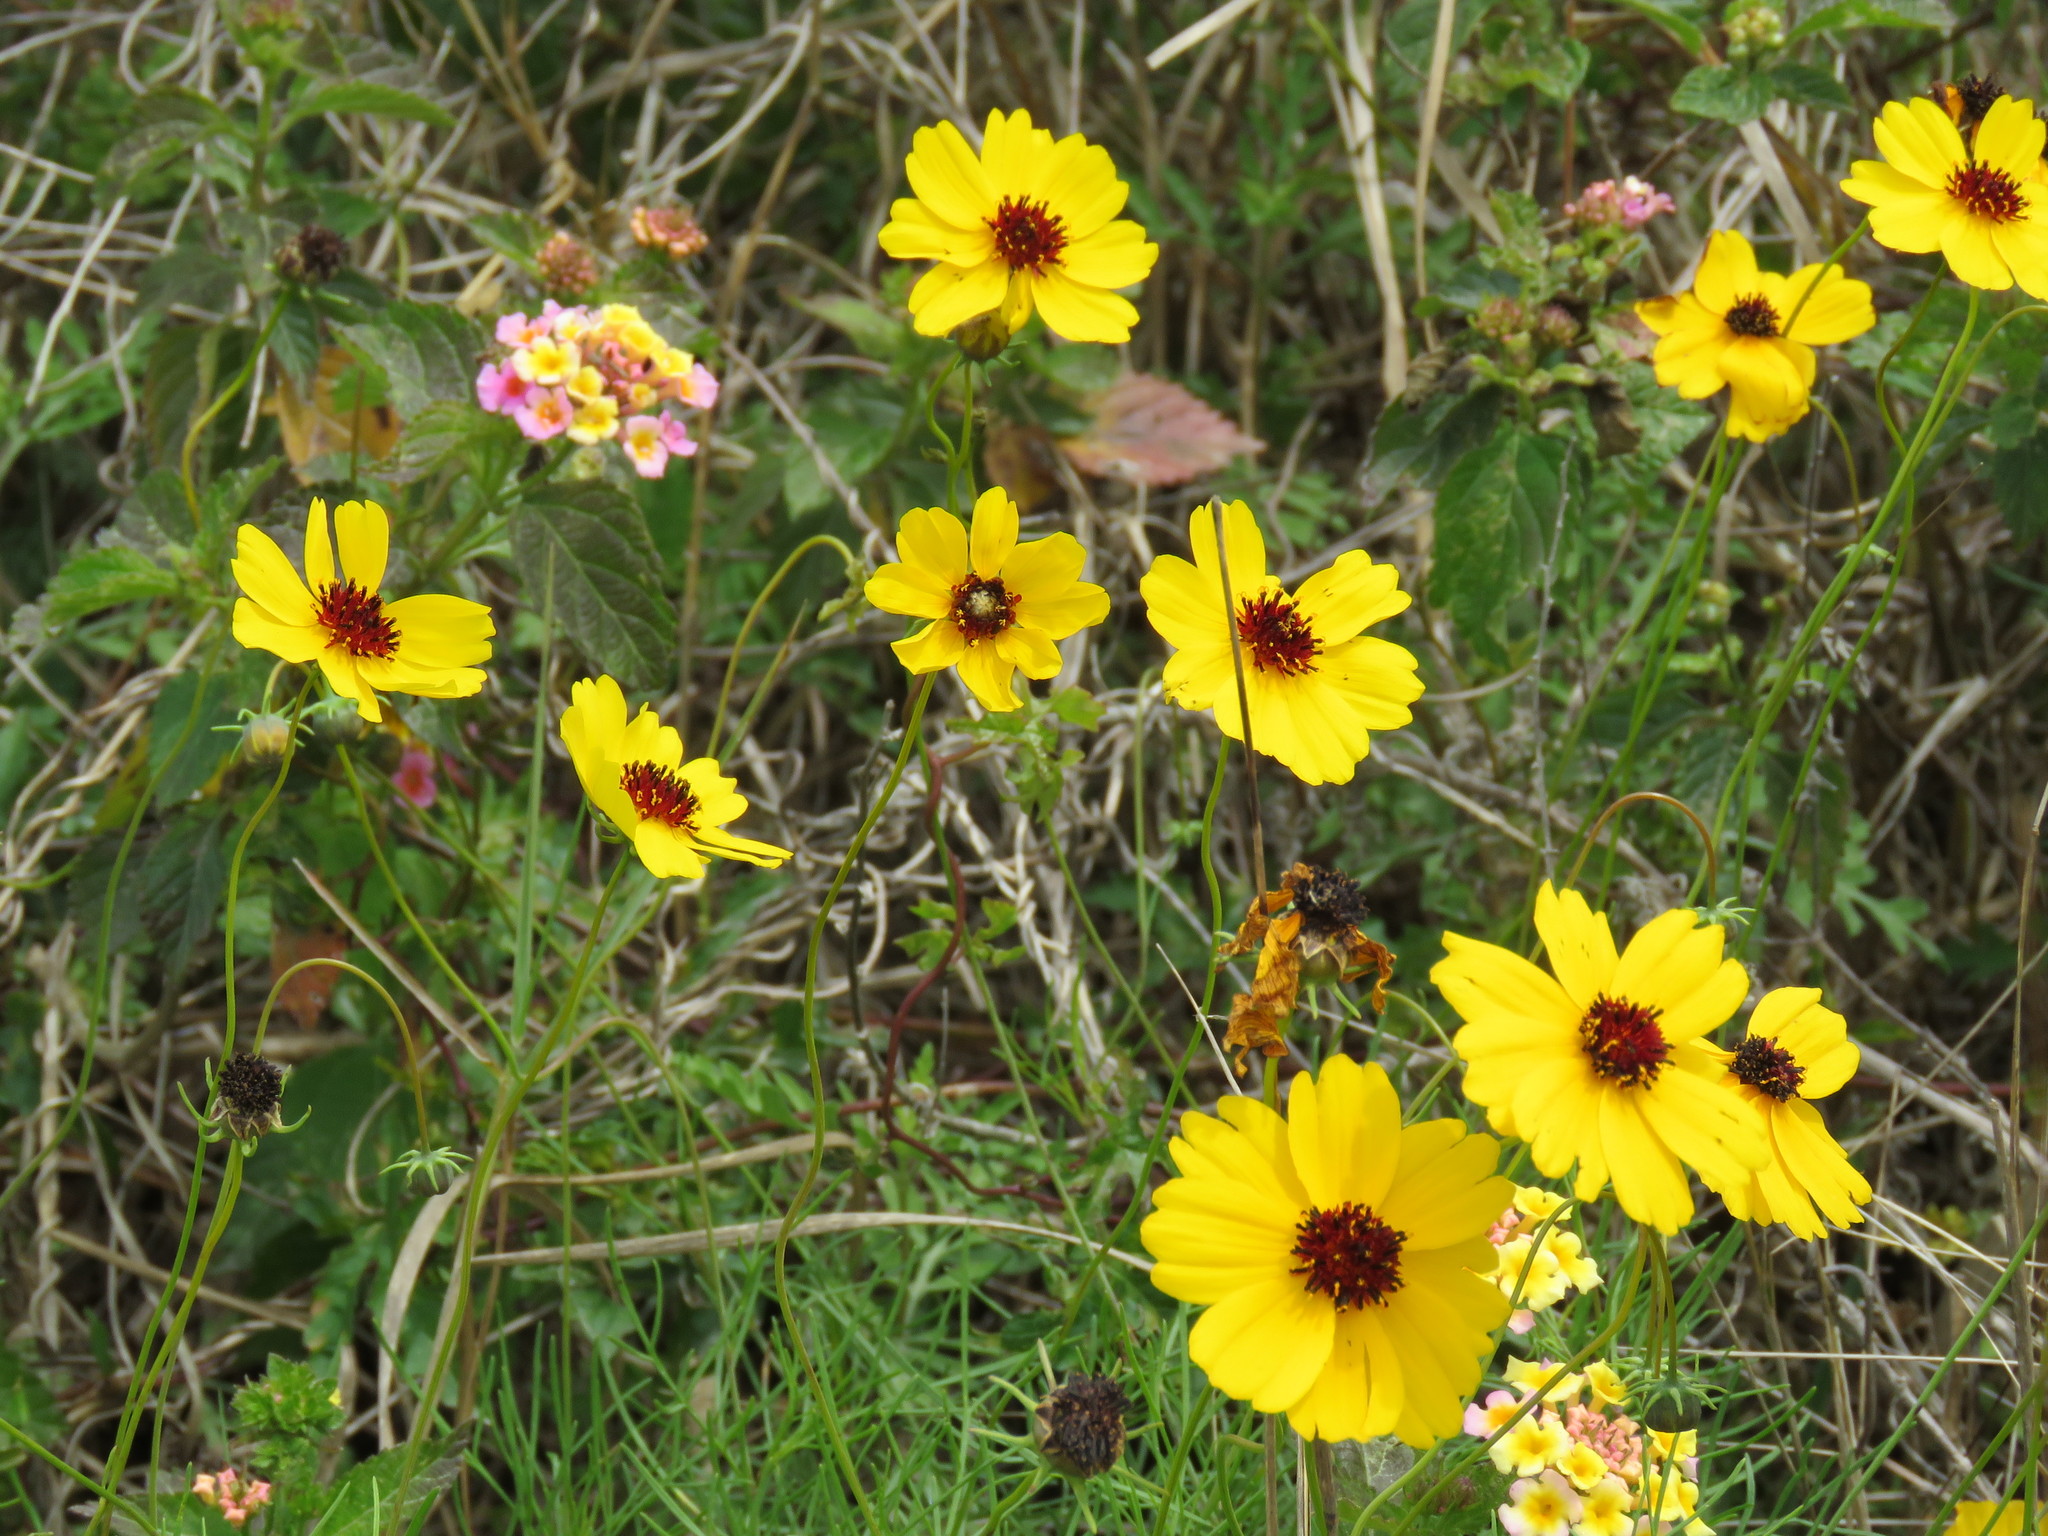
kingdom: Plantae
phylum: Tracheophyta
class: Magnoliopsida
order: Asterales
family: Asteraceae
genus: Thelesperma
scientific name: Thelesperma filifolium
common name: Stiff greenthread
